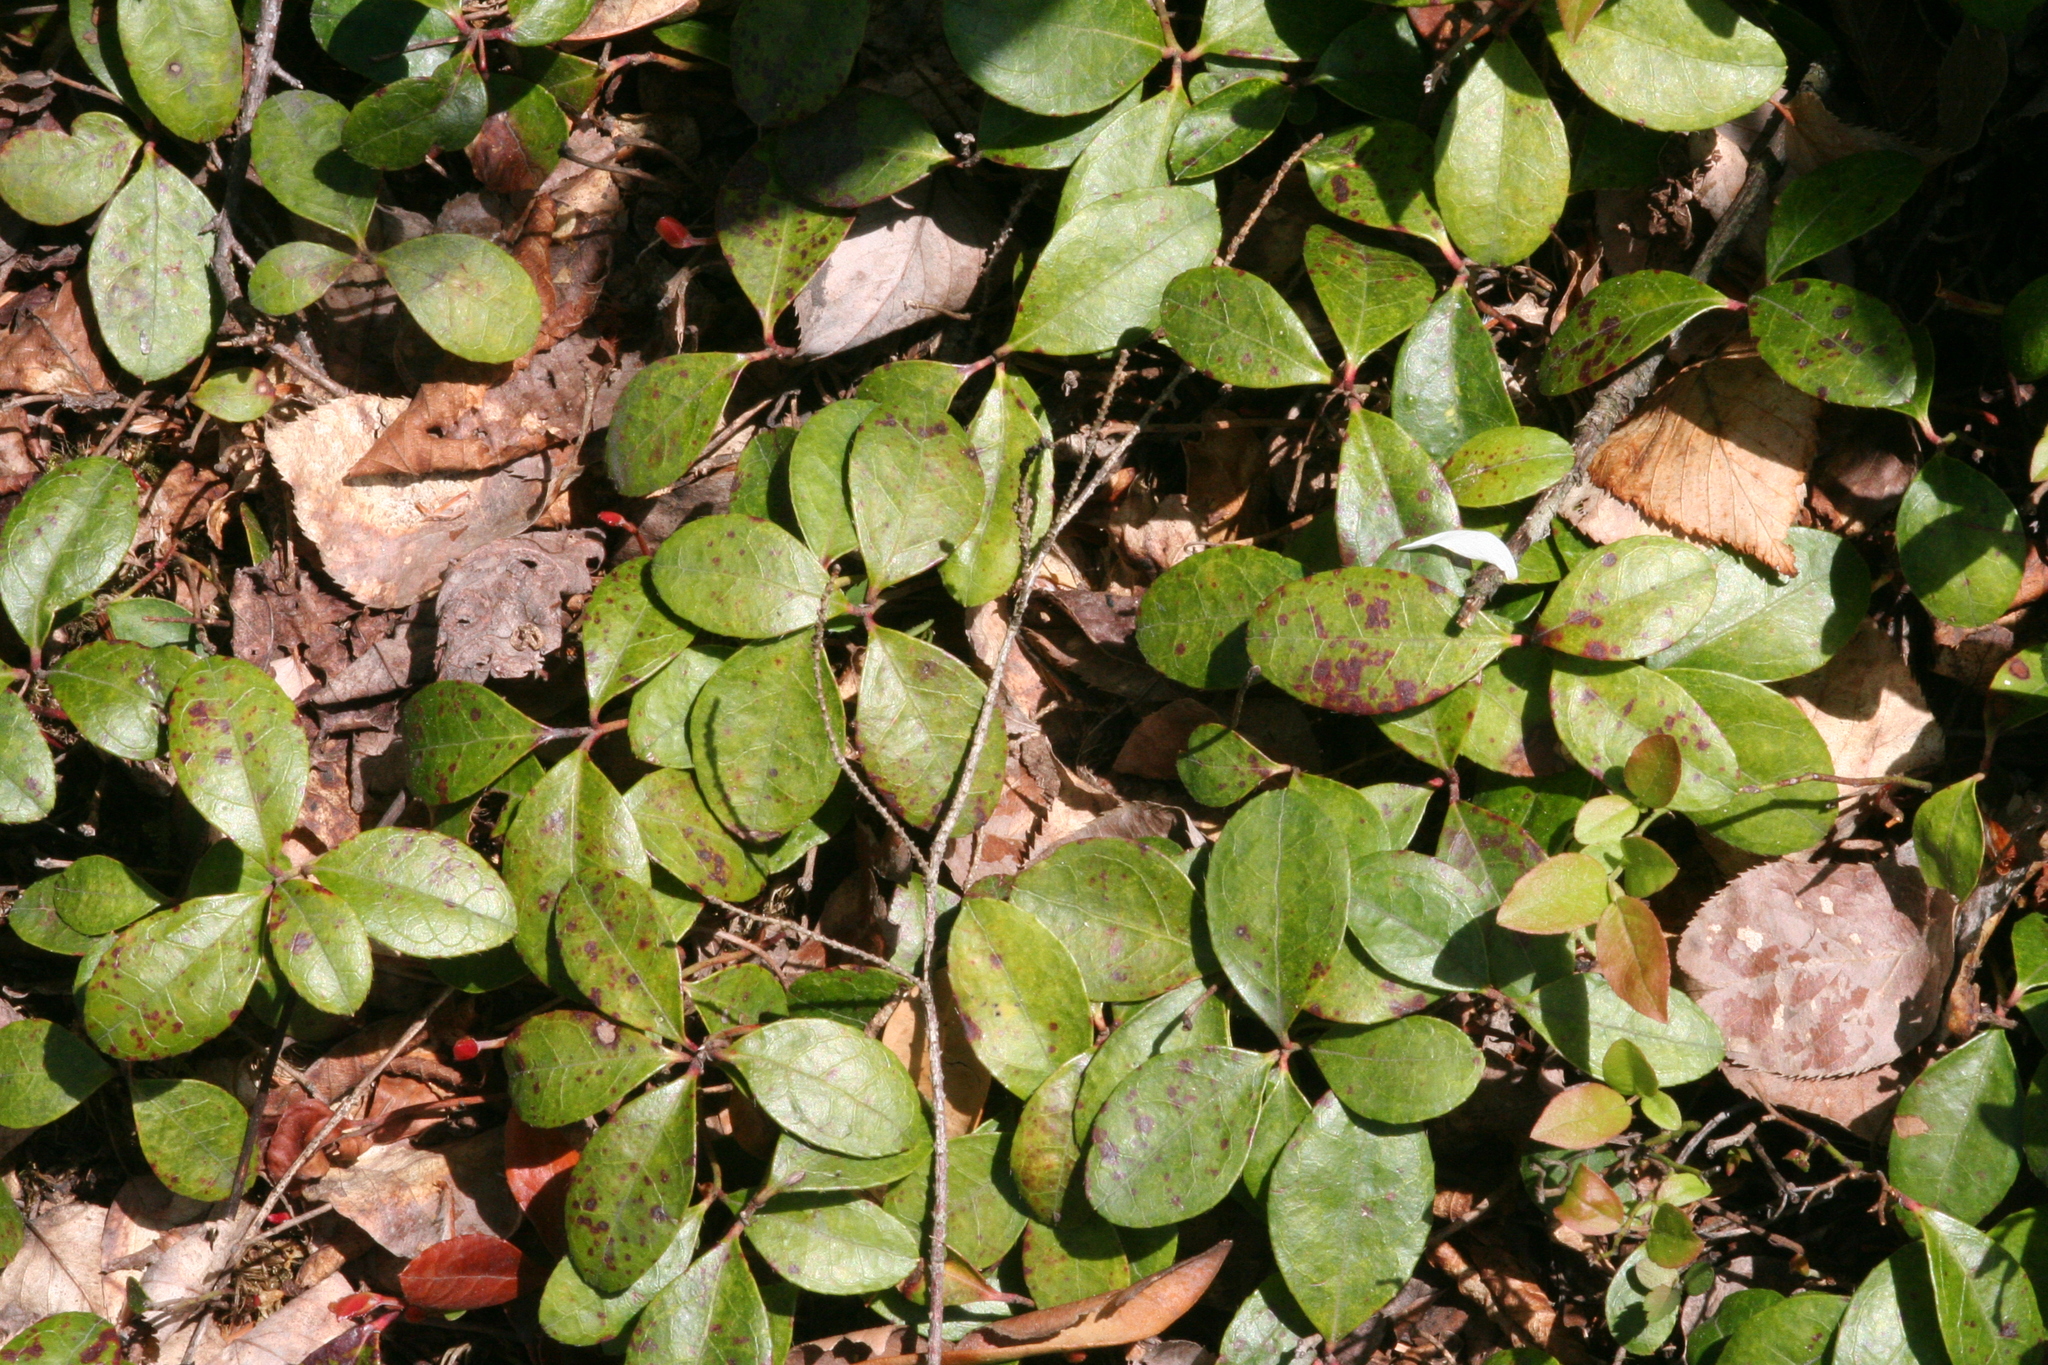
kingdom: Plantae
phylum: Tracheophyta
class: Magnoliopsida
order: Ericales
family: Ericaceae
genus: Gaultheria
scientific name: Gaultheria procumbens
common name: Checkerberry
